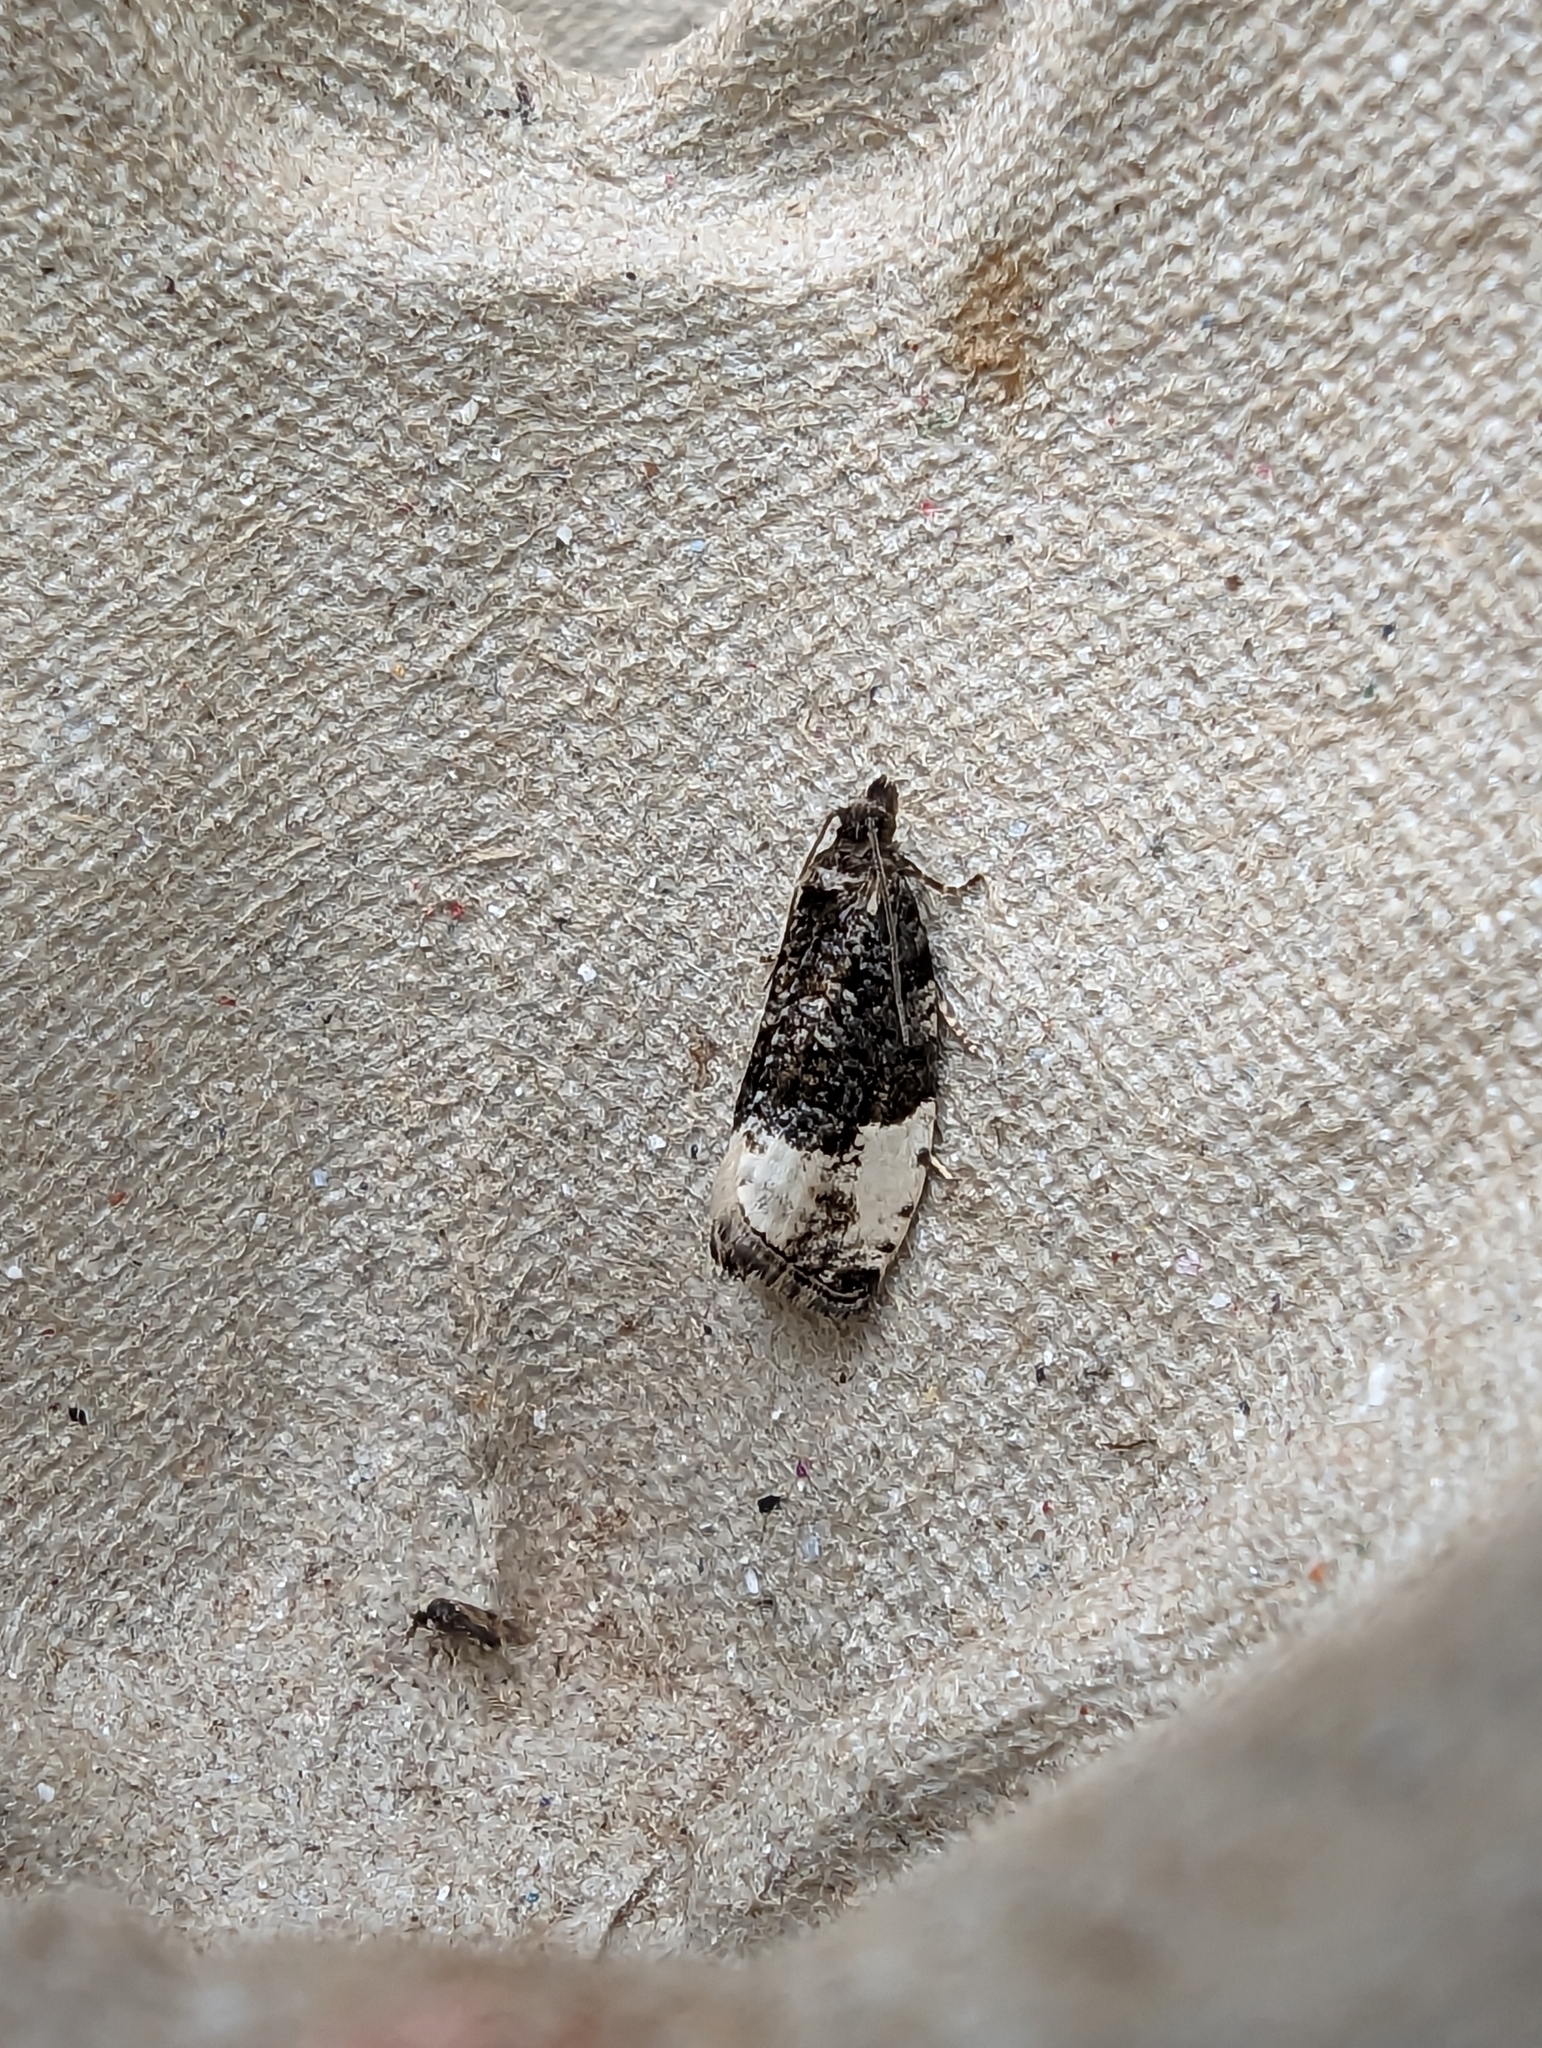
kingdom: Animalia
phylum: Arthropoda
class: Insecta
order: Lepidoptera
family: Tortricidae
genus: Hedya
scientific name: Hedya pruniana
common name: Plum tortrix
